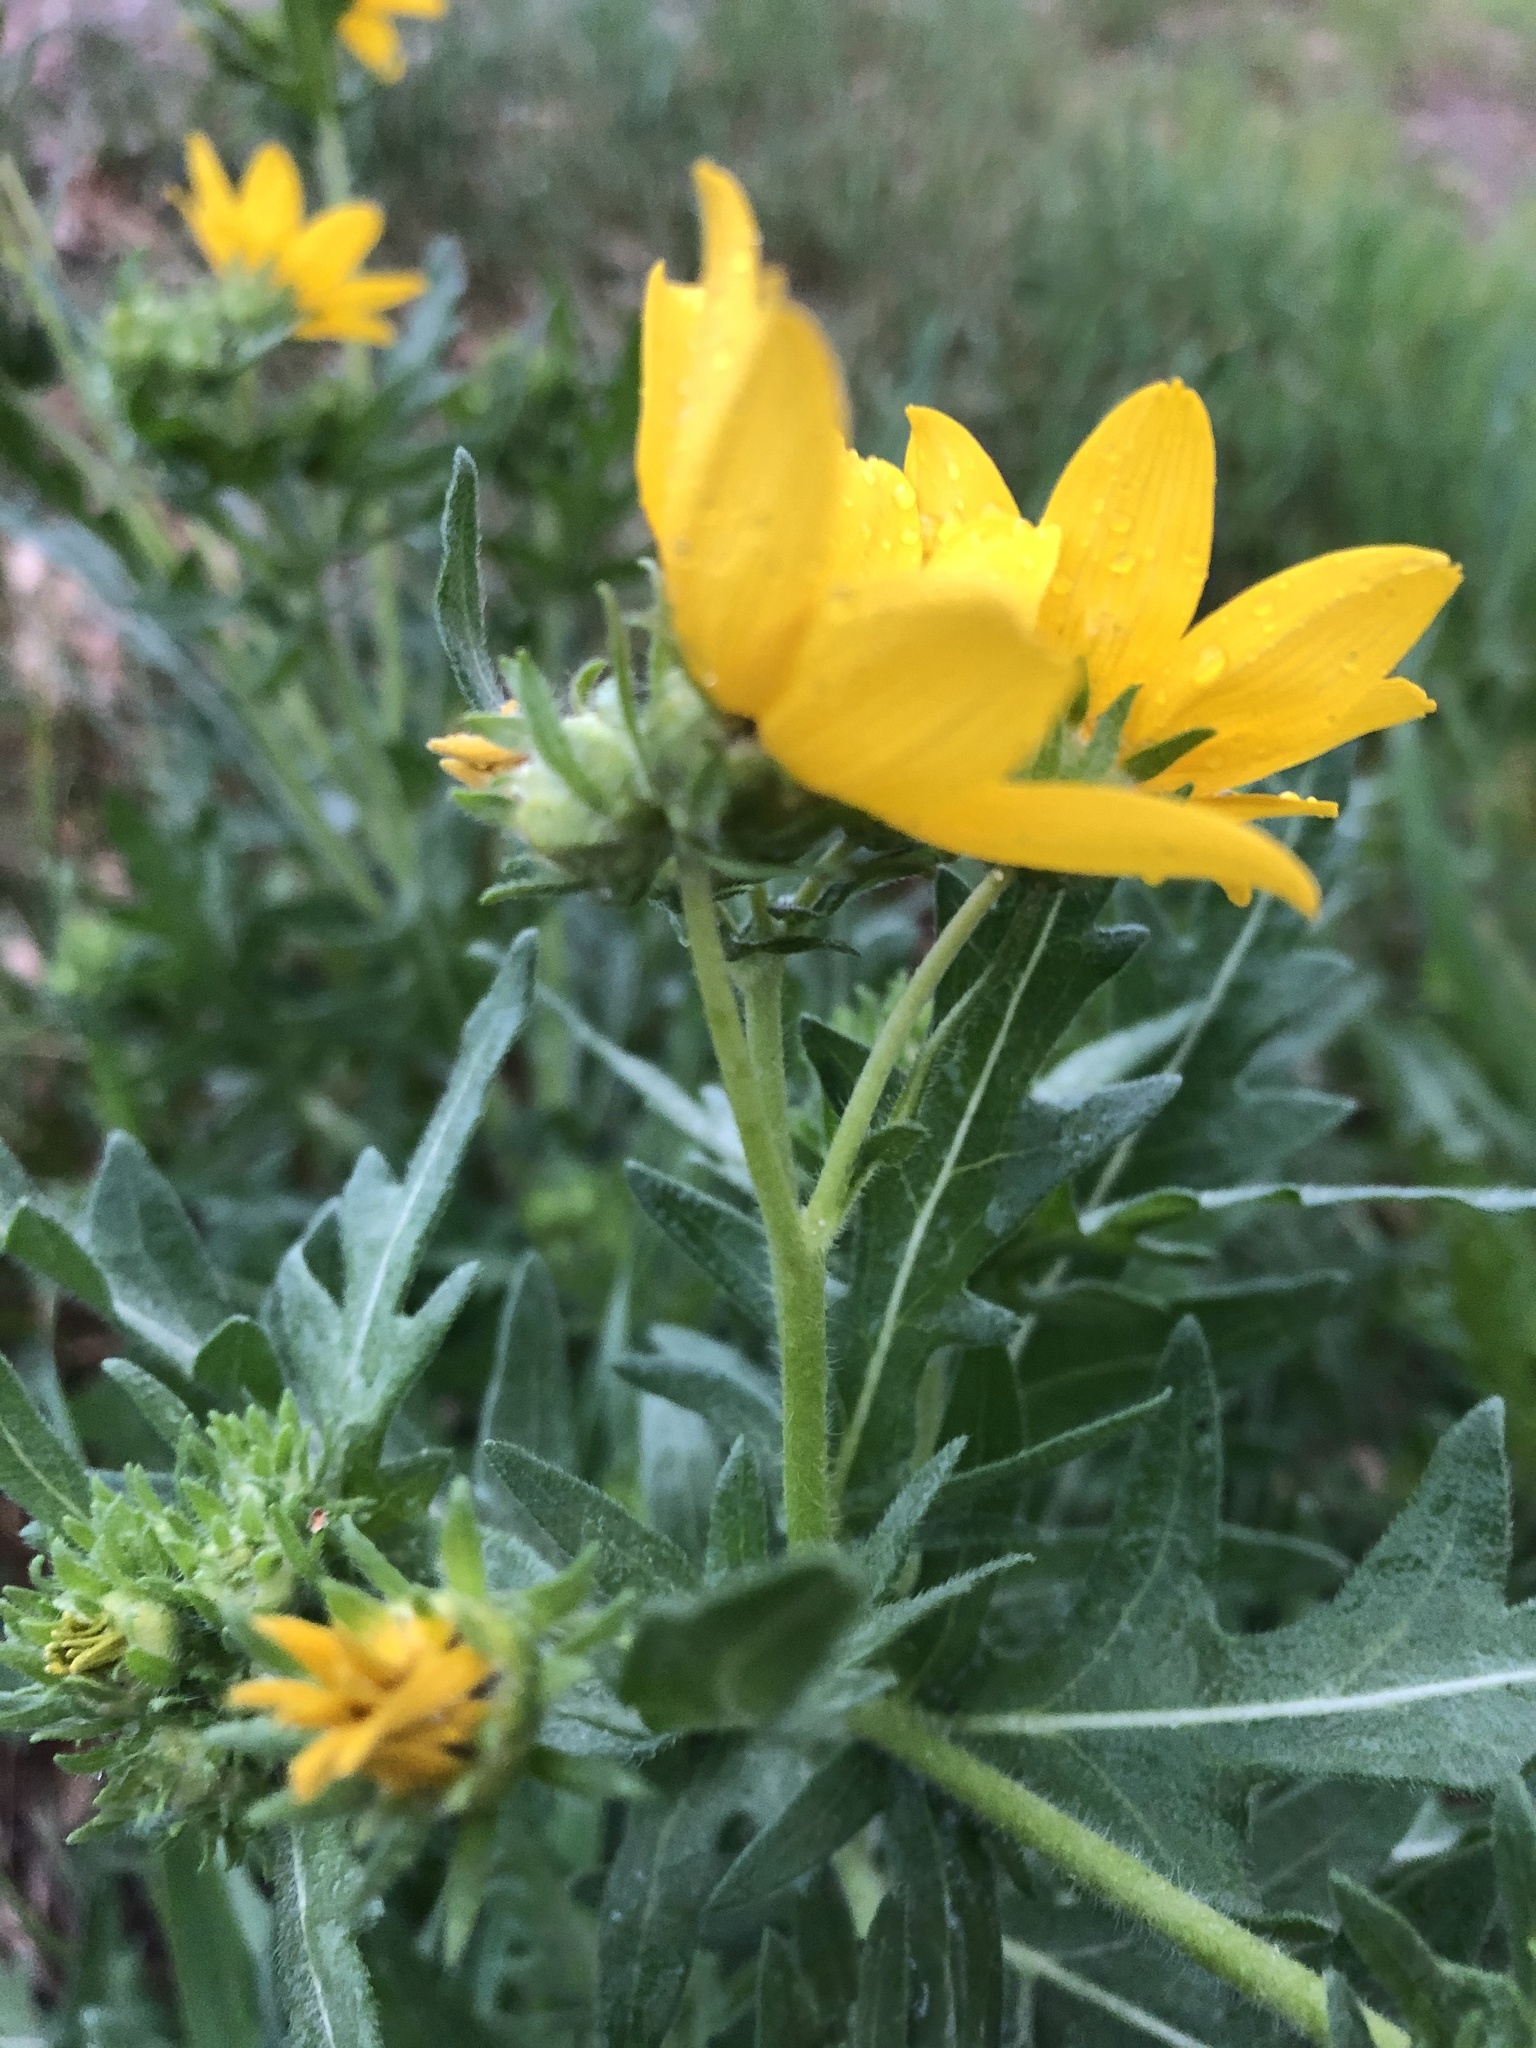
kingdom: Plantae
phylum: Tracheophyta
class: Magnoliopsida
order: Asterales
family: Asteraceae
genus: Engelmannia
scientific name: Engelmannia peristenia
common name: Engelmann's daisy
